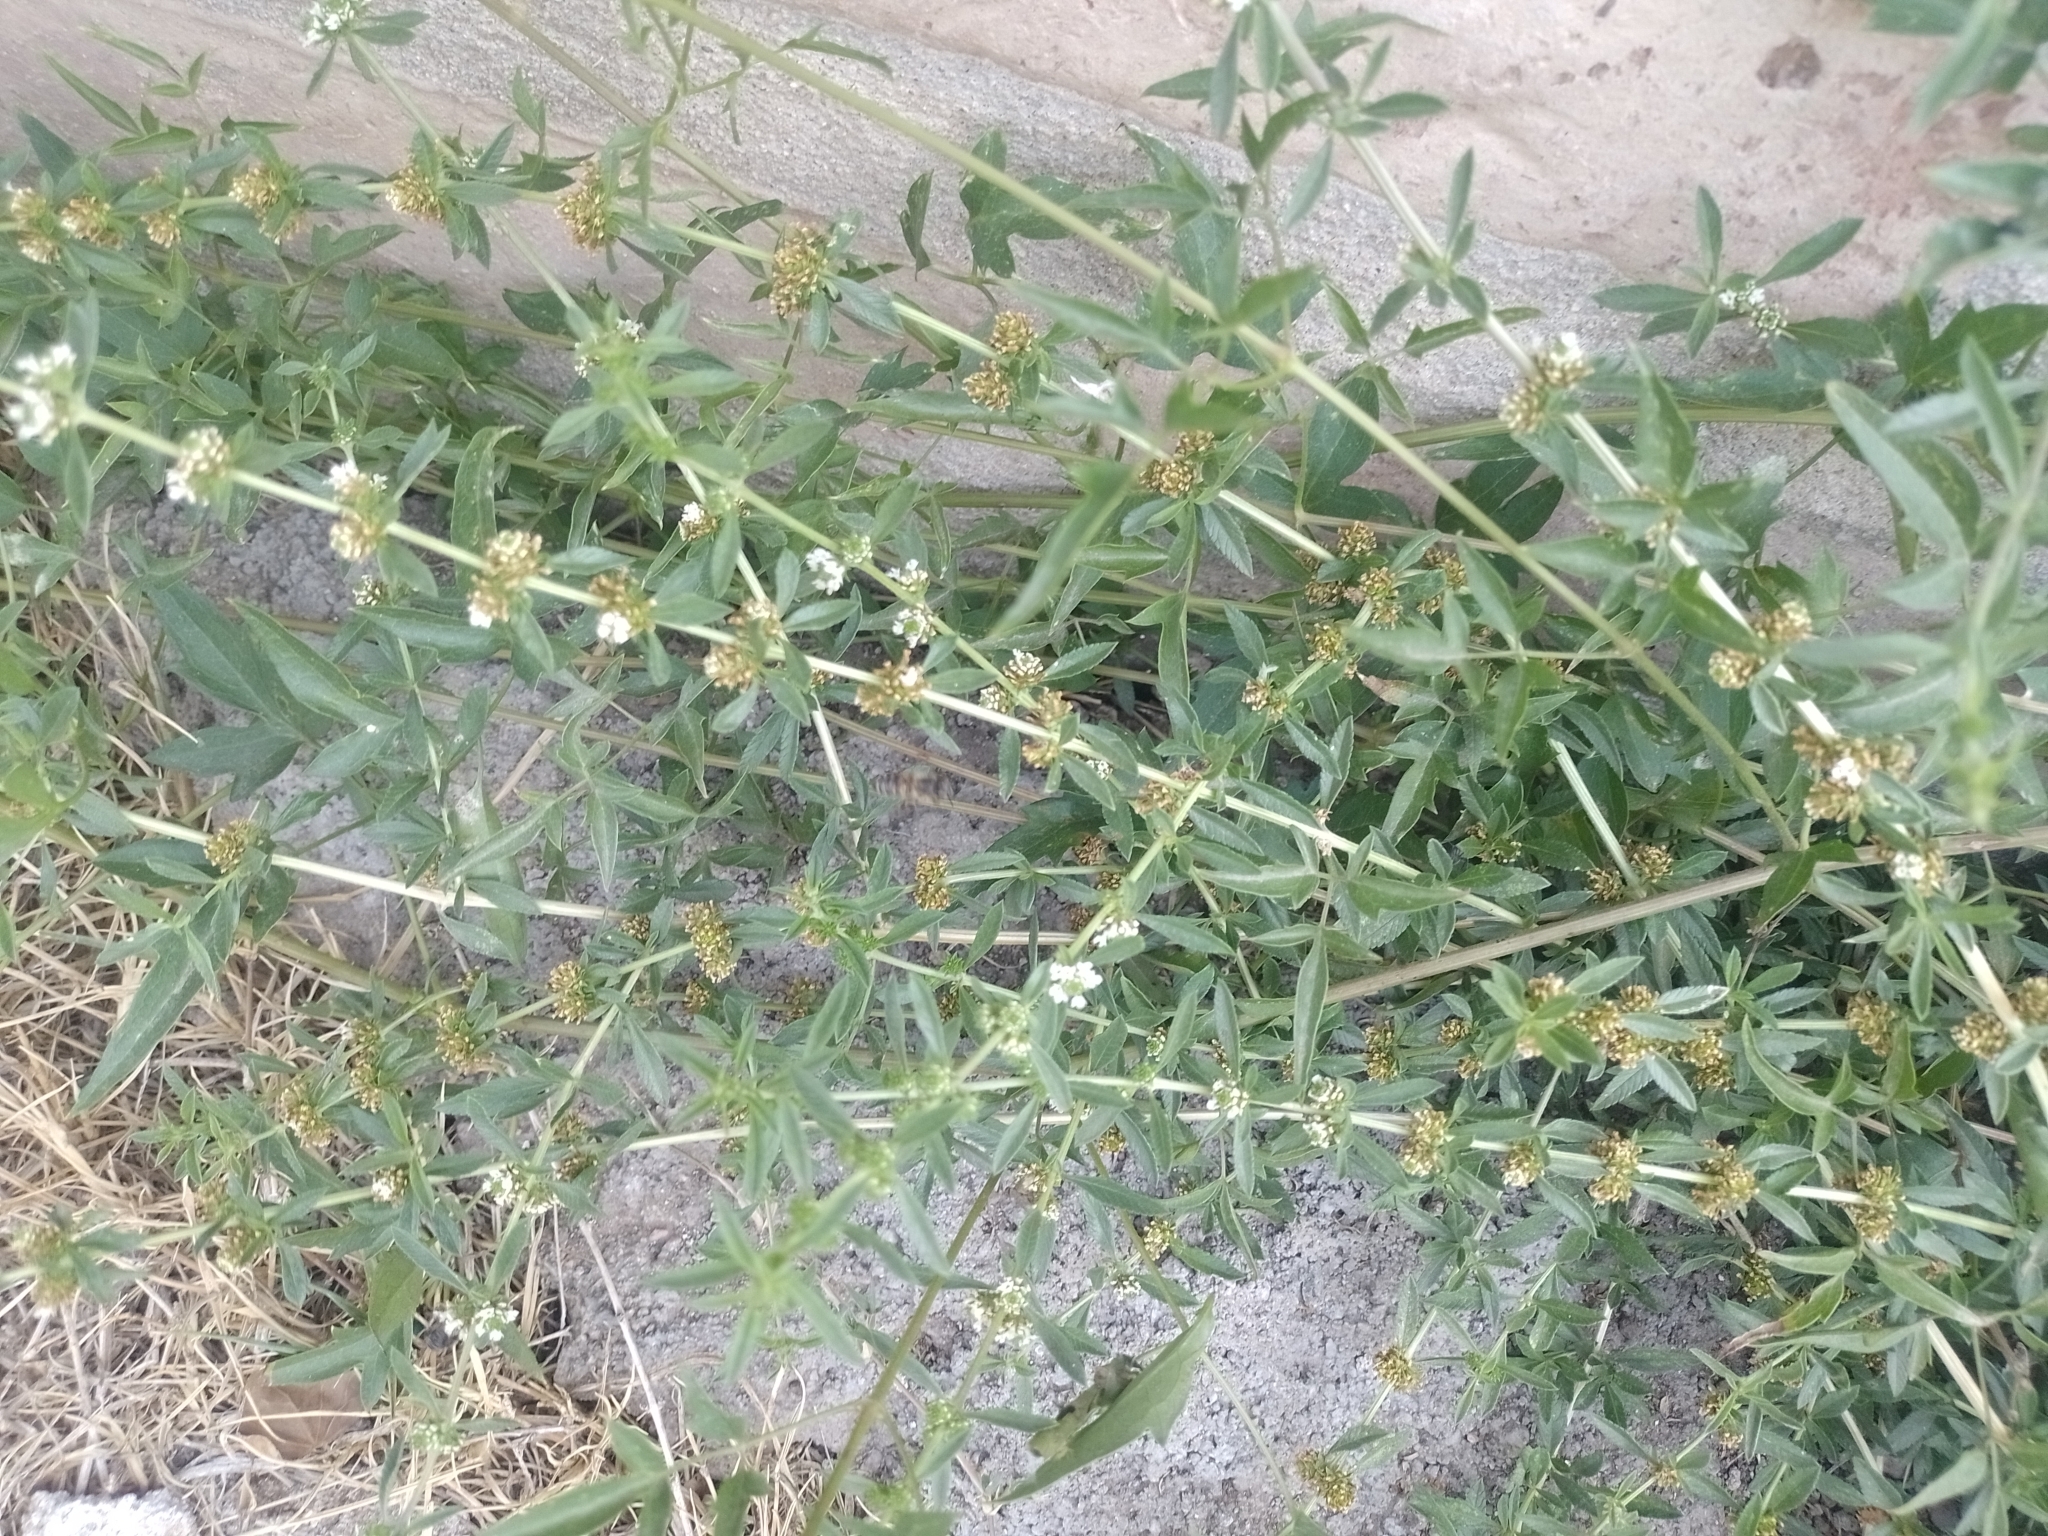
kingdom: Plantae
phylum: Tracheophyta
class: Magnoliopsida
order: Lamiales
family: Verbenaceae
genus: Lippia
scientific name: Lippia turbinata
